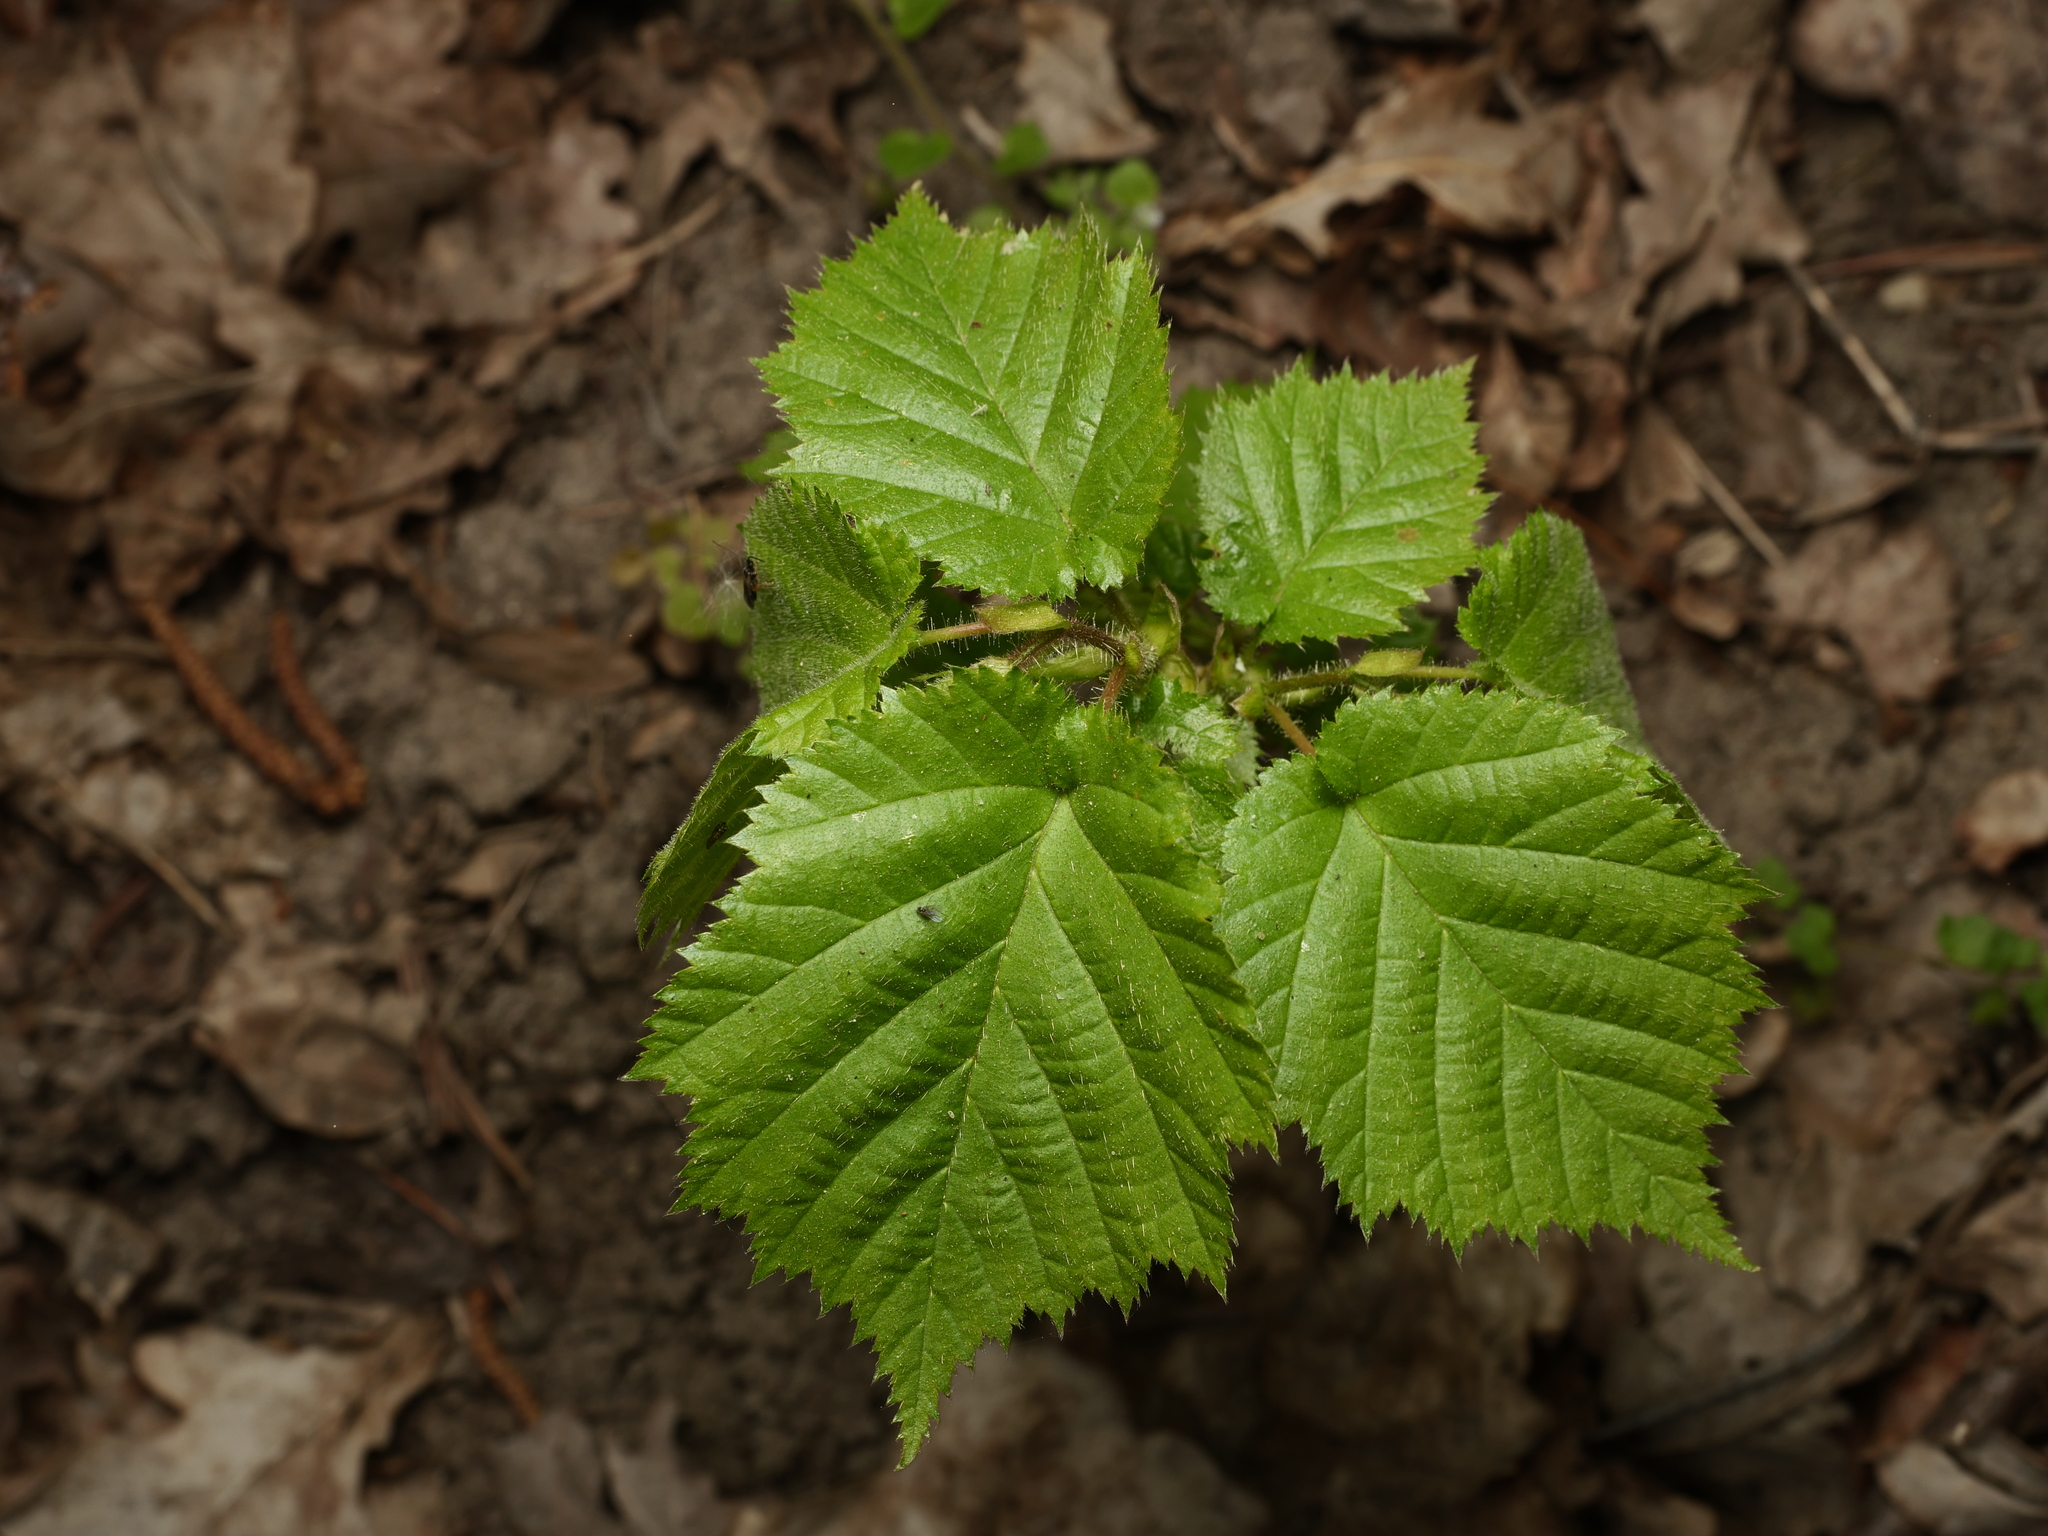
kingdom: Plantae
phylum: Tracheophyta
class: Magnoliopsida
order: Fagales
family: Betulaceae
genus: Corylus
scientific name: Corylus avellana
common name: European hazel
